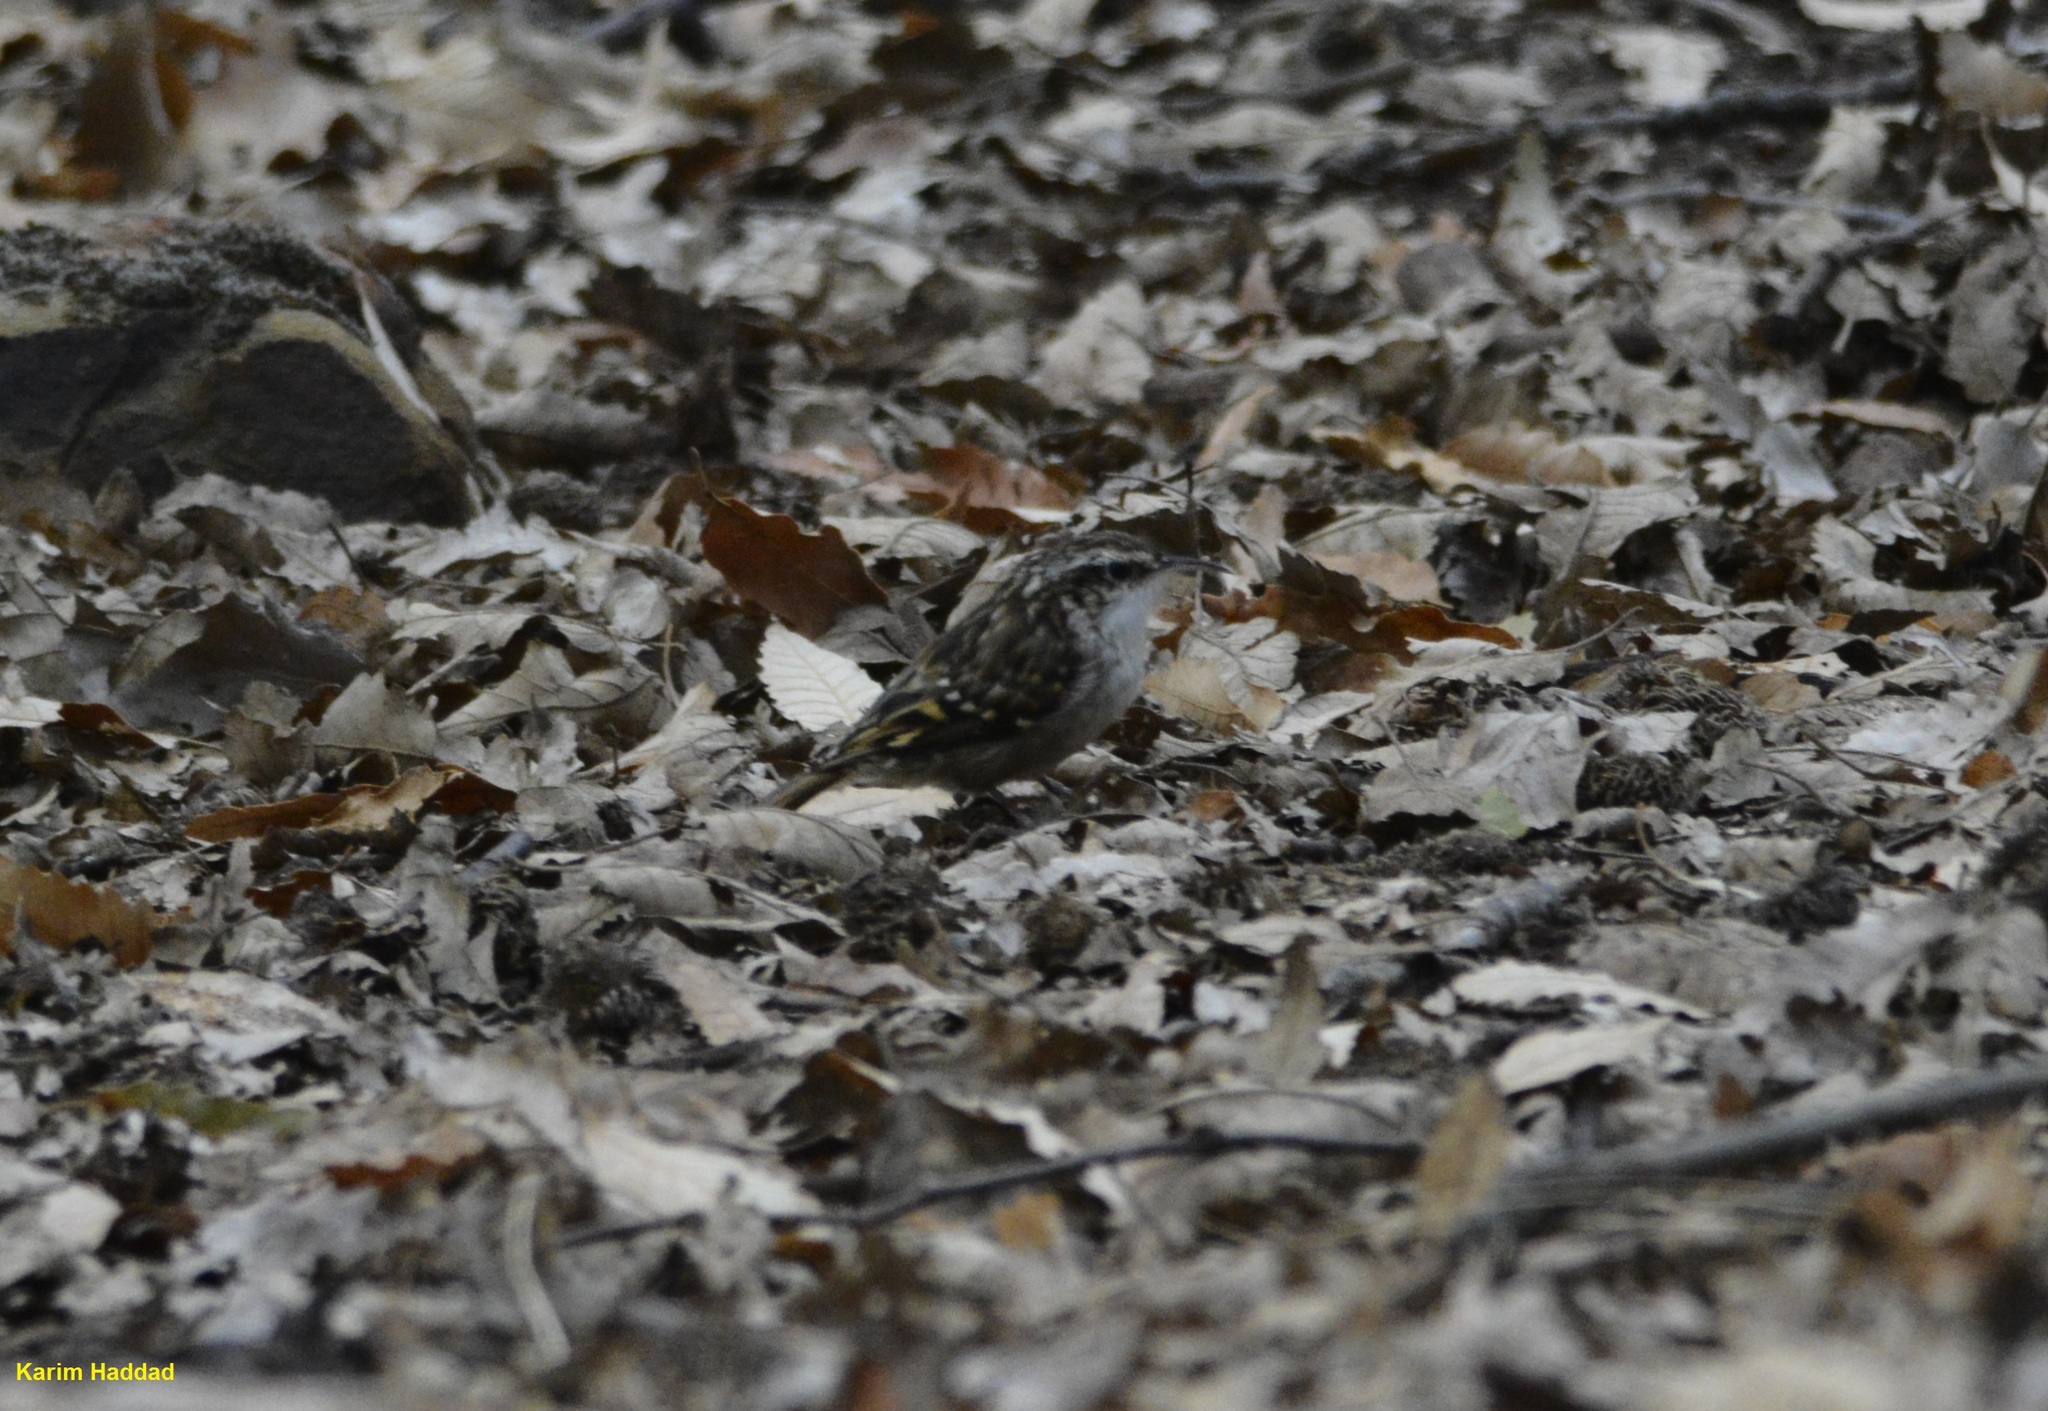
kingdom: Animalia
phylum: Chordata
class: Aves
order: Passeriformes
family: Certhiidae
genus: Certhia
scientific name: Certhia brachydactyla
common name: Short-toed treecreeper
